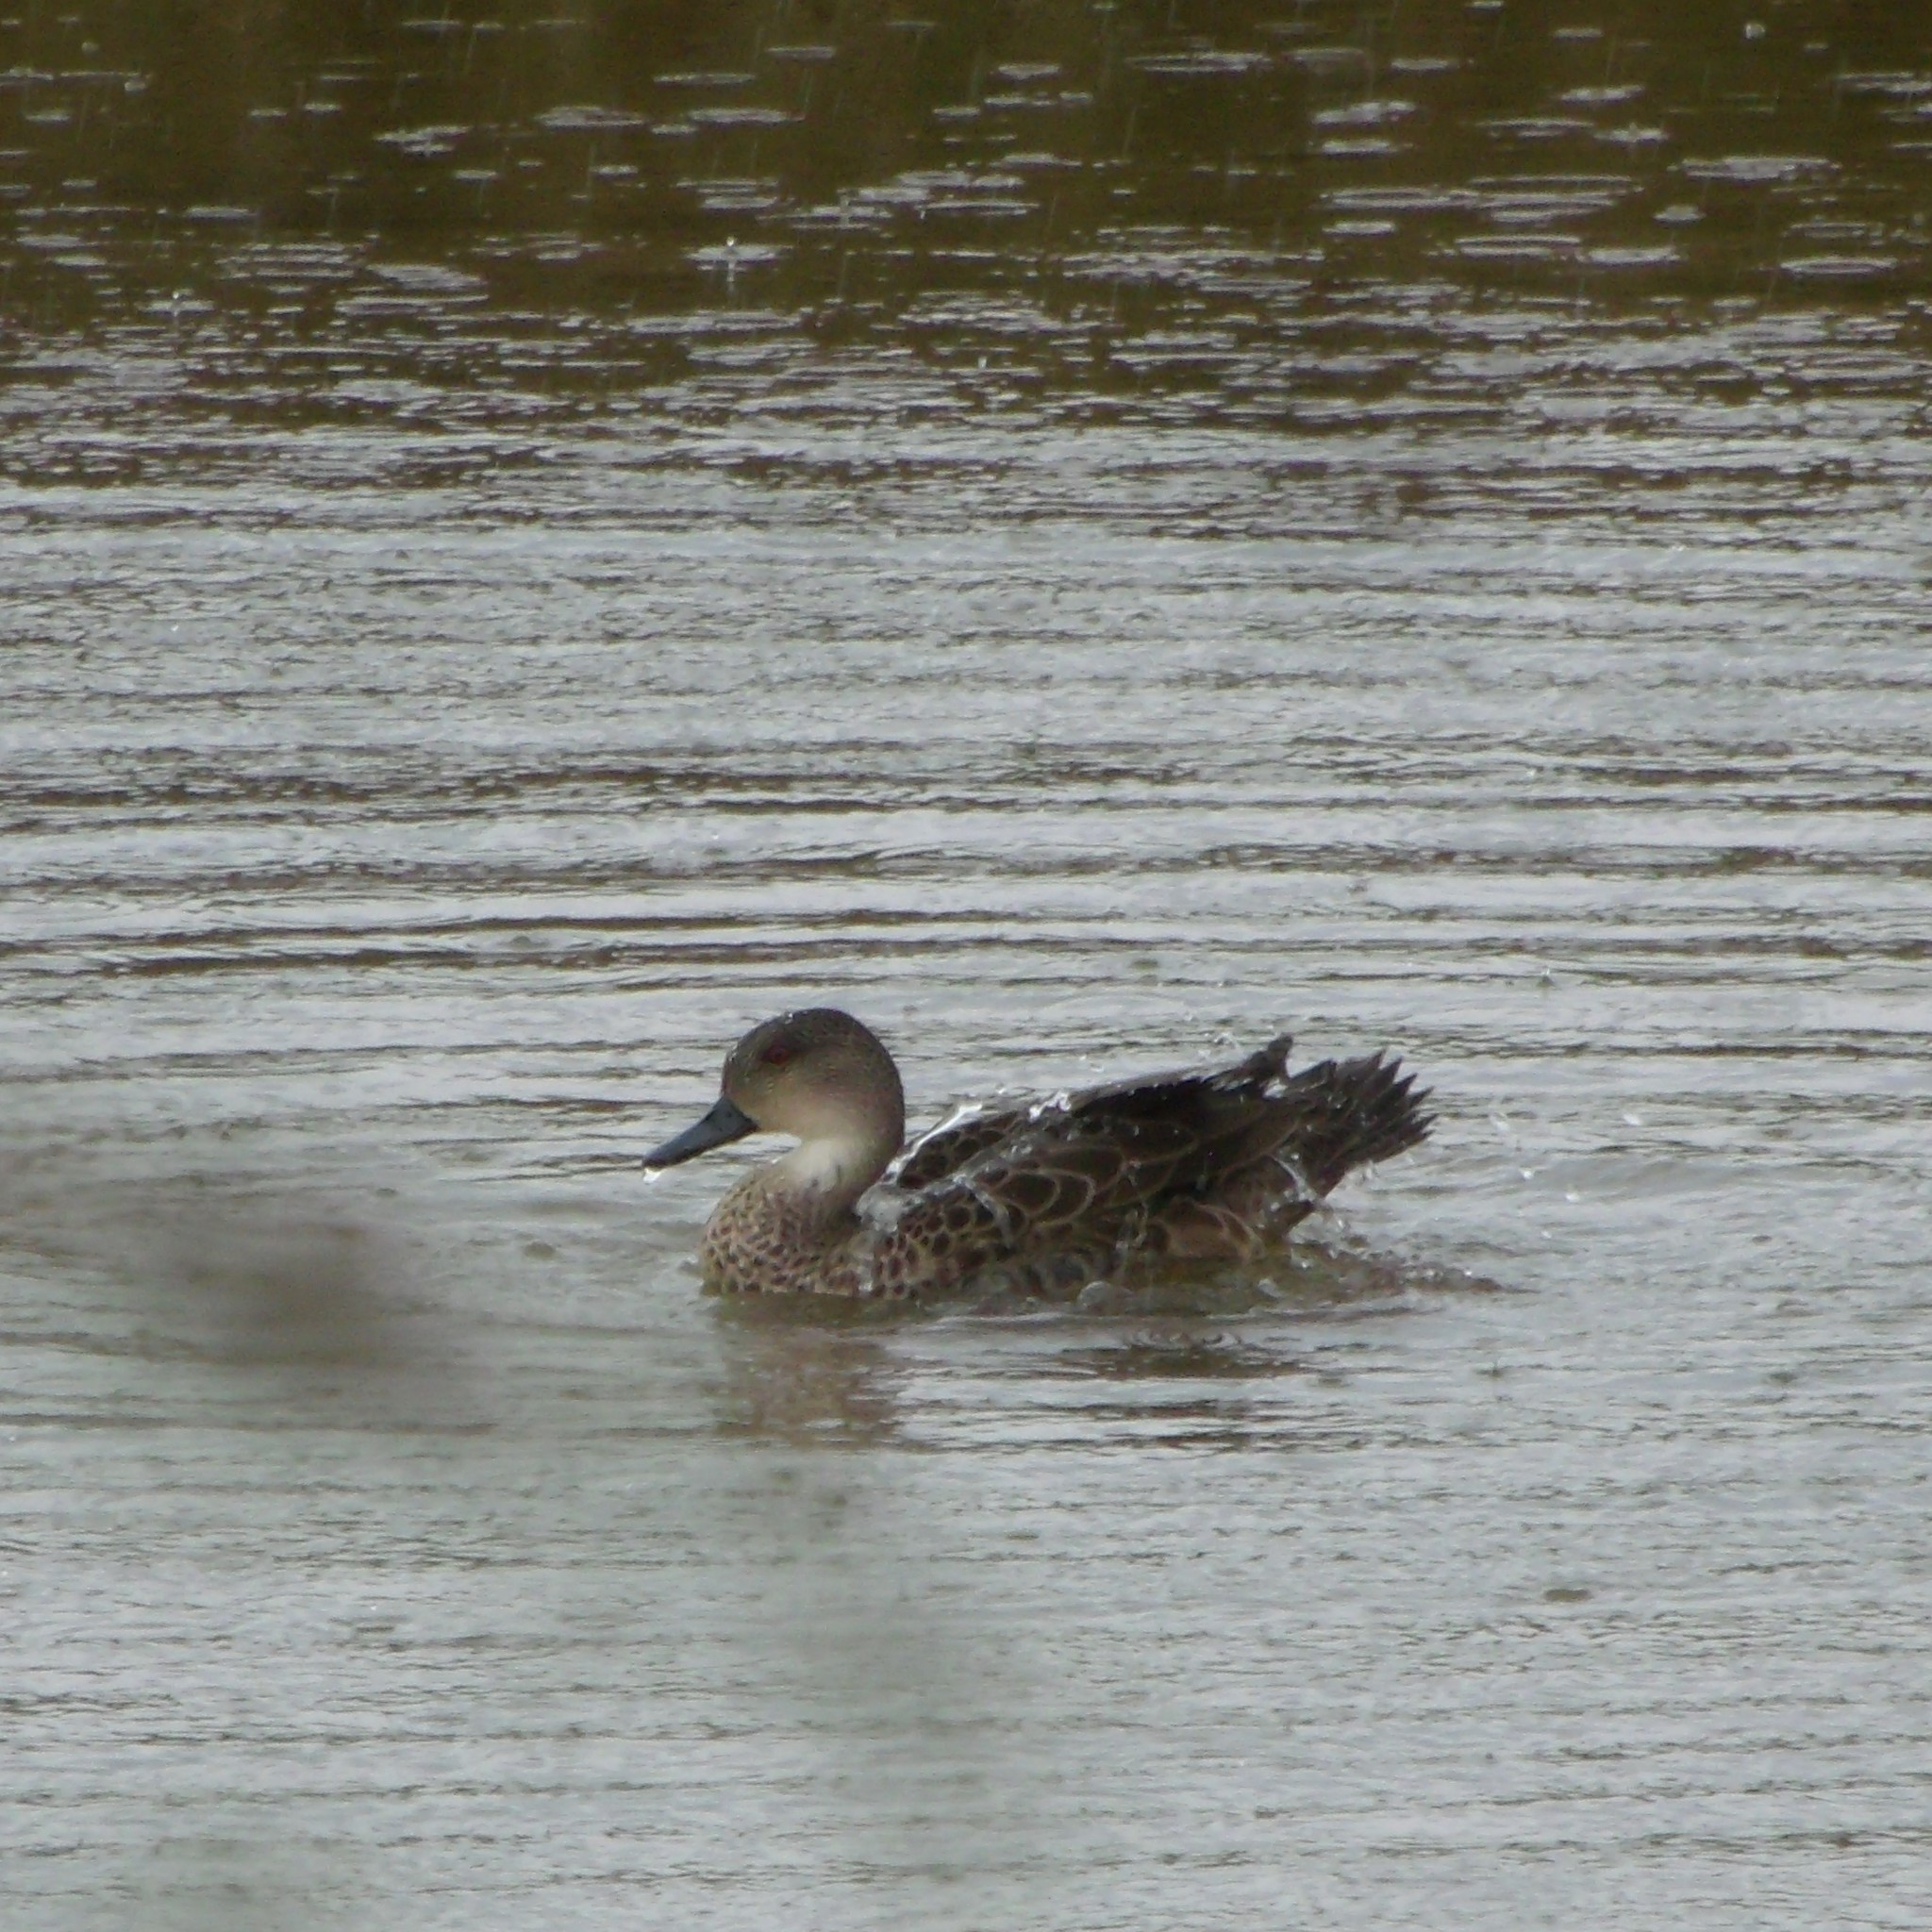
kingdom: Animalia
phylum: Chordata
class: Aves
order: Anseriformes
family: Anatidae
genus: Anas
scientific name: Anas gracilis
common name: Grey teal
